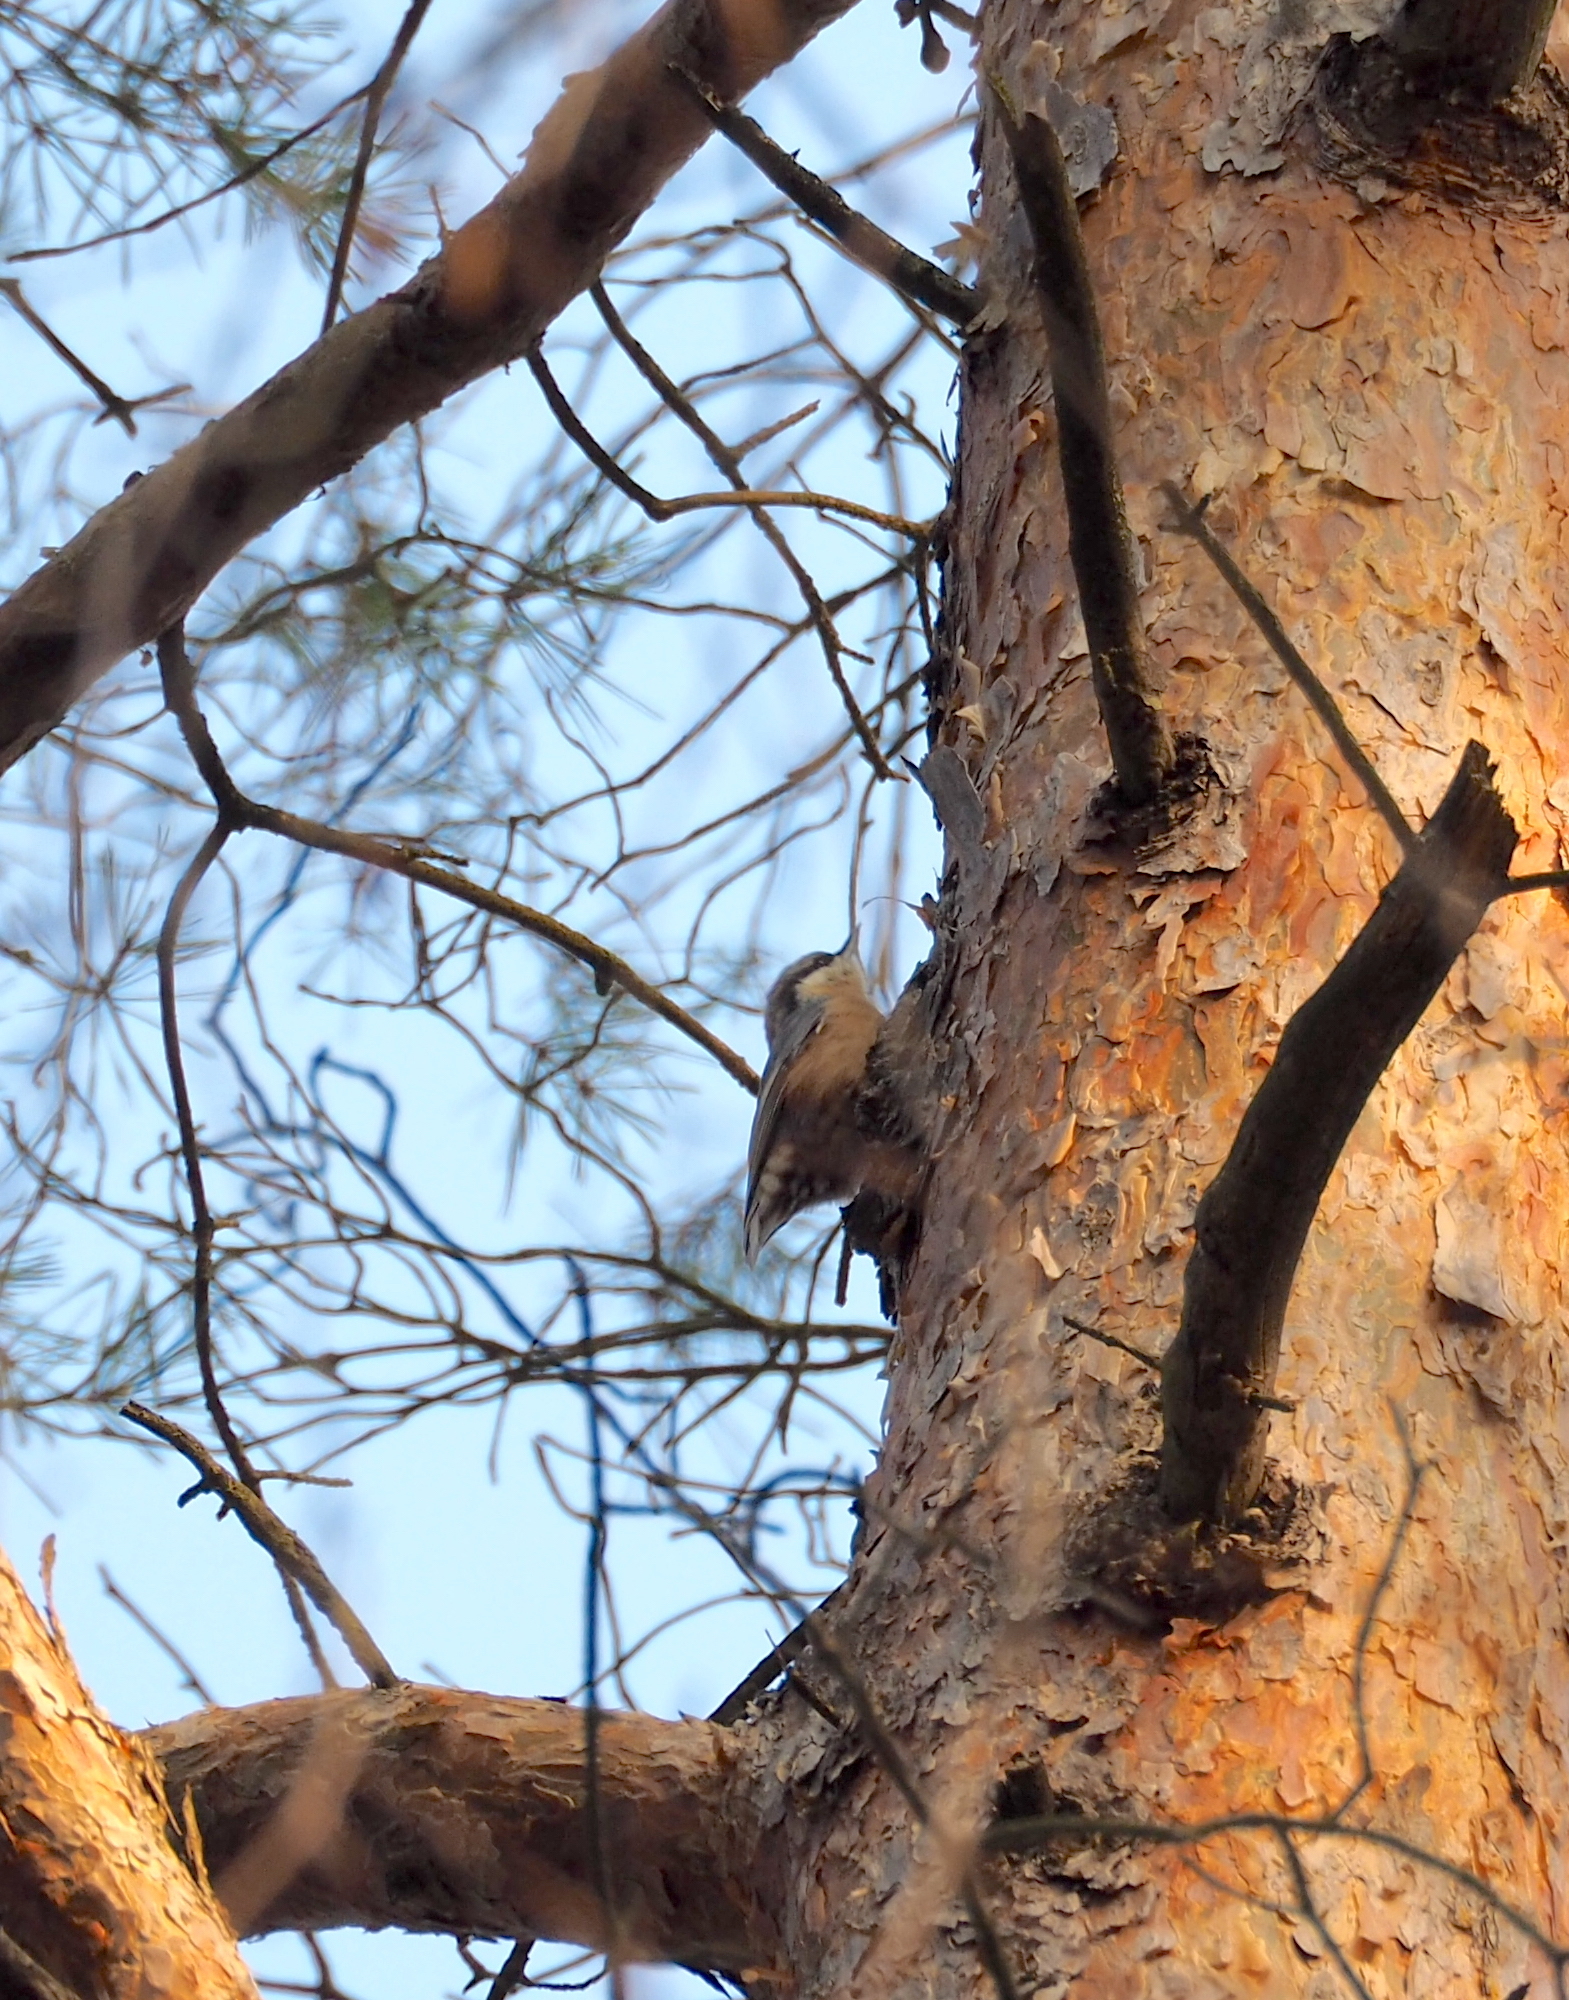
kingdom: Animalia
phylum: Chordata
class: Aves
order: Passeriformes
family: Sittidae
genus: Sitta
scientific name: Sitta europaea
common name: Eurasian nuthatch
